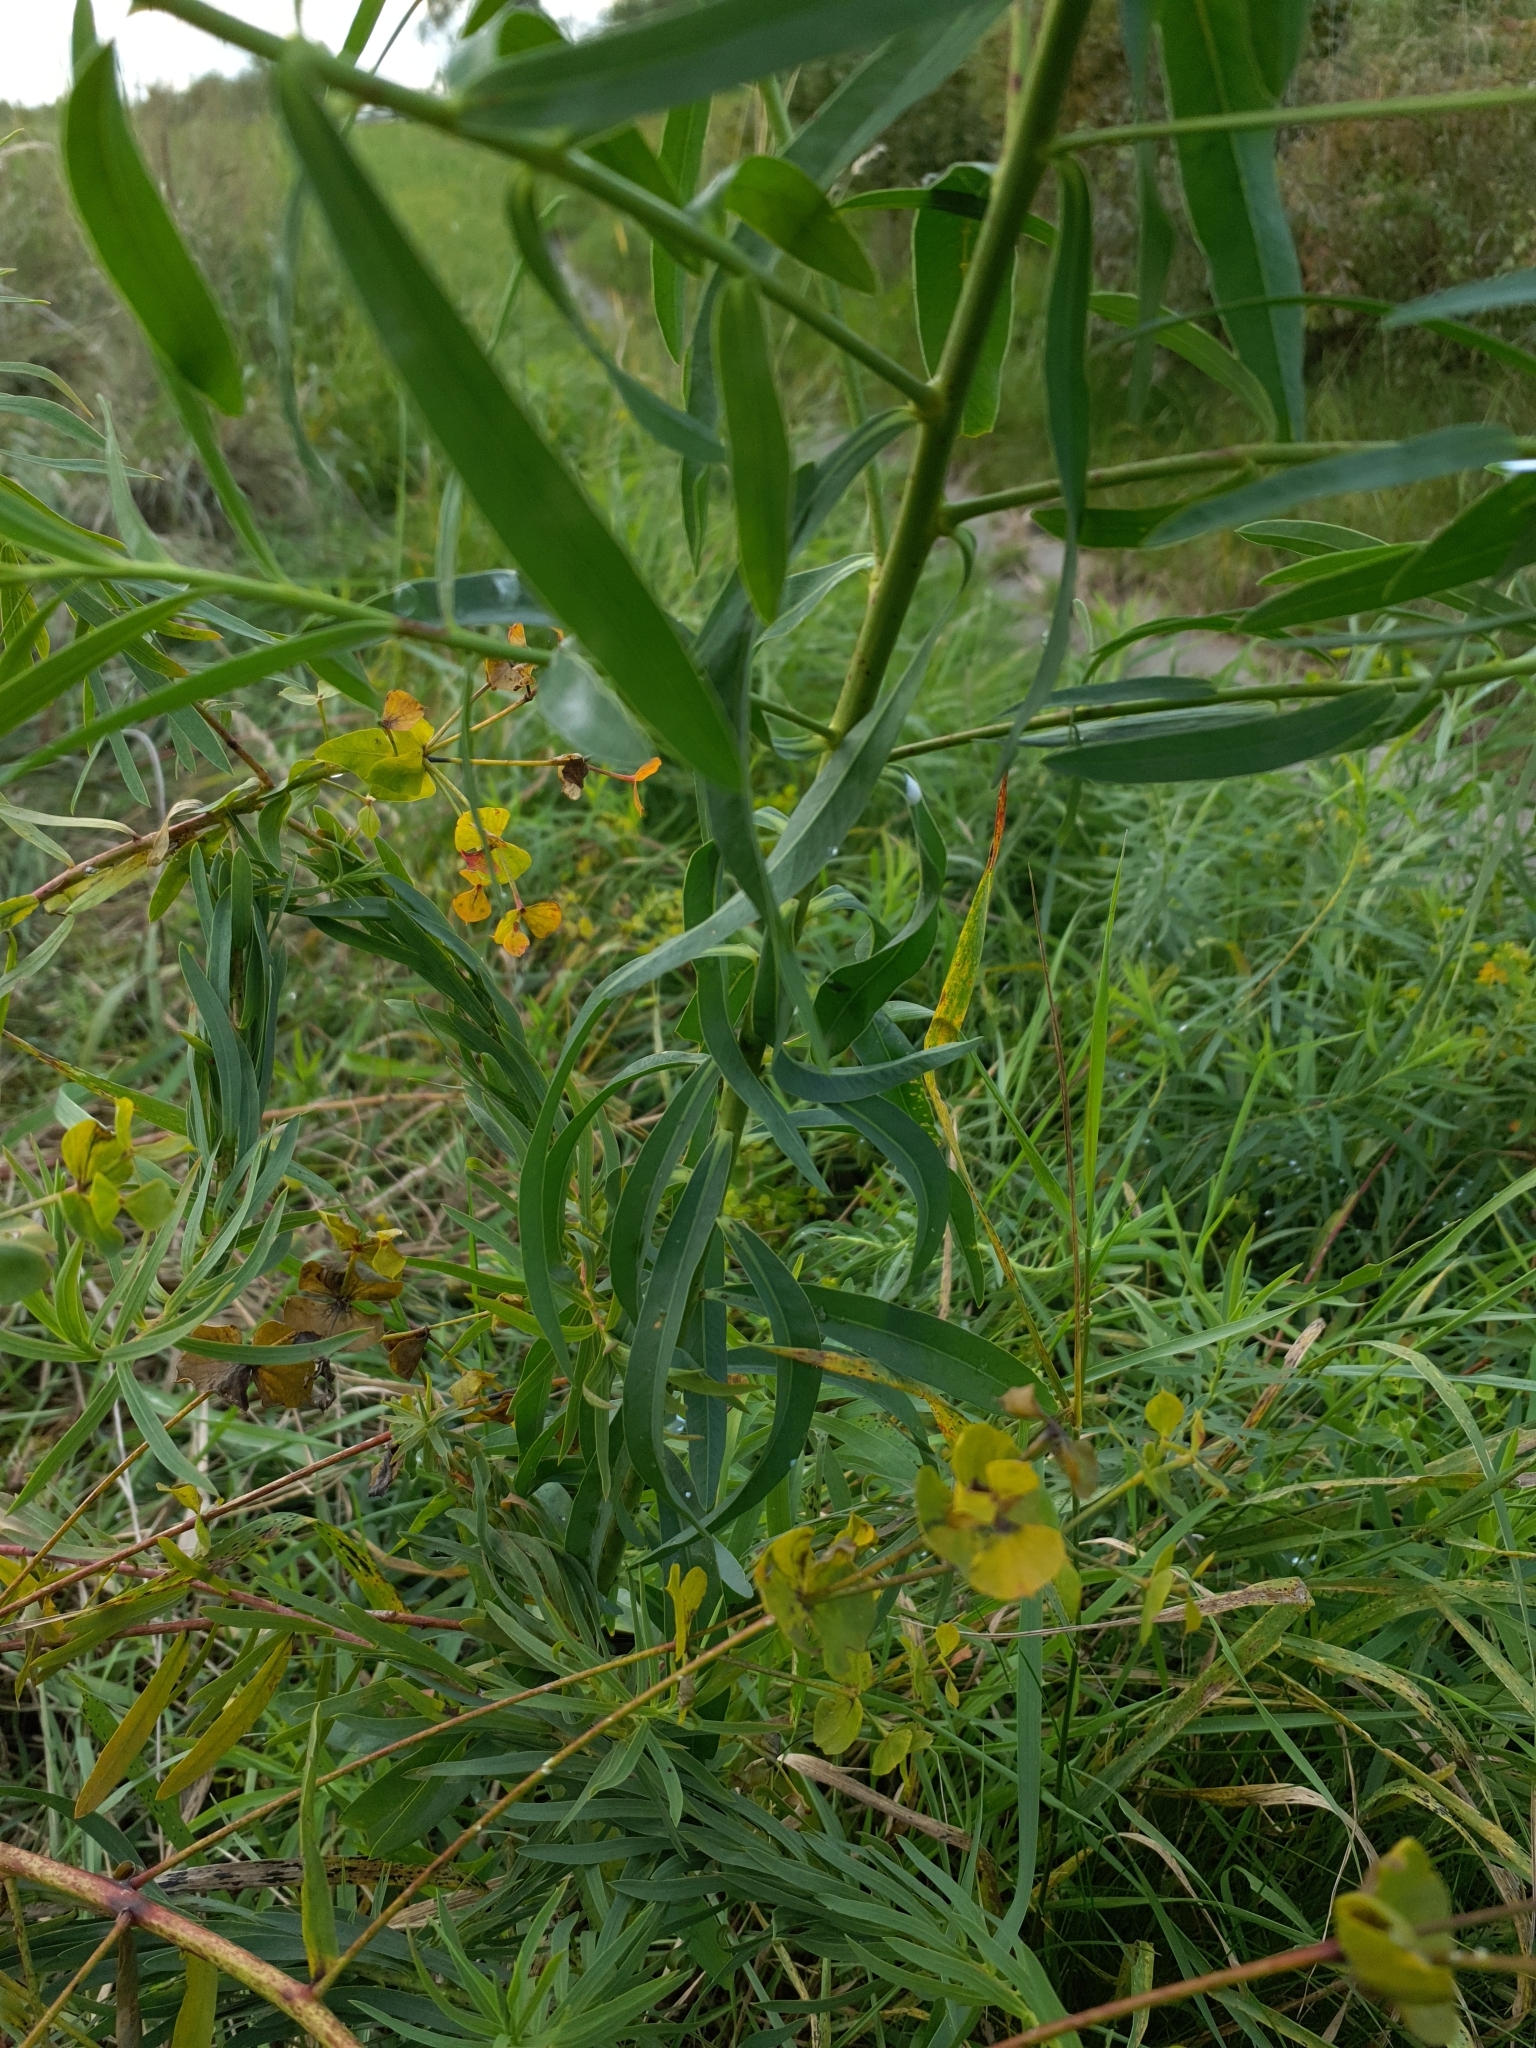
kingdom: Plantae
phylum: Tracheophyta
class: Magnoliopsida
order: Malpighiales
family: Euphorbiaceae
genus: Euphorbia
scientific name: Euphorbia saratoi
